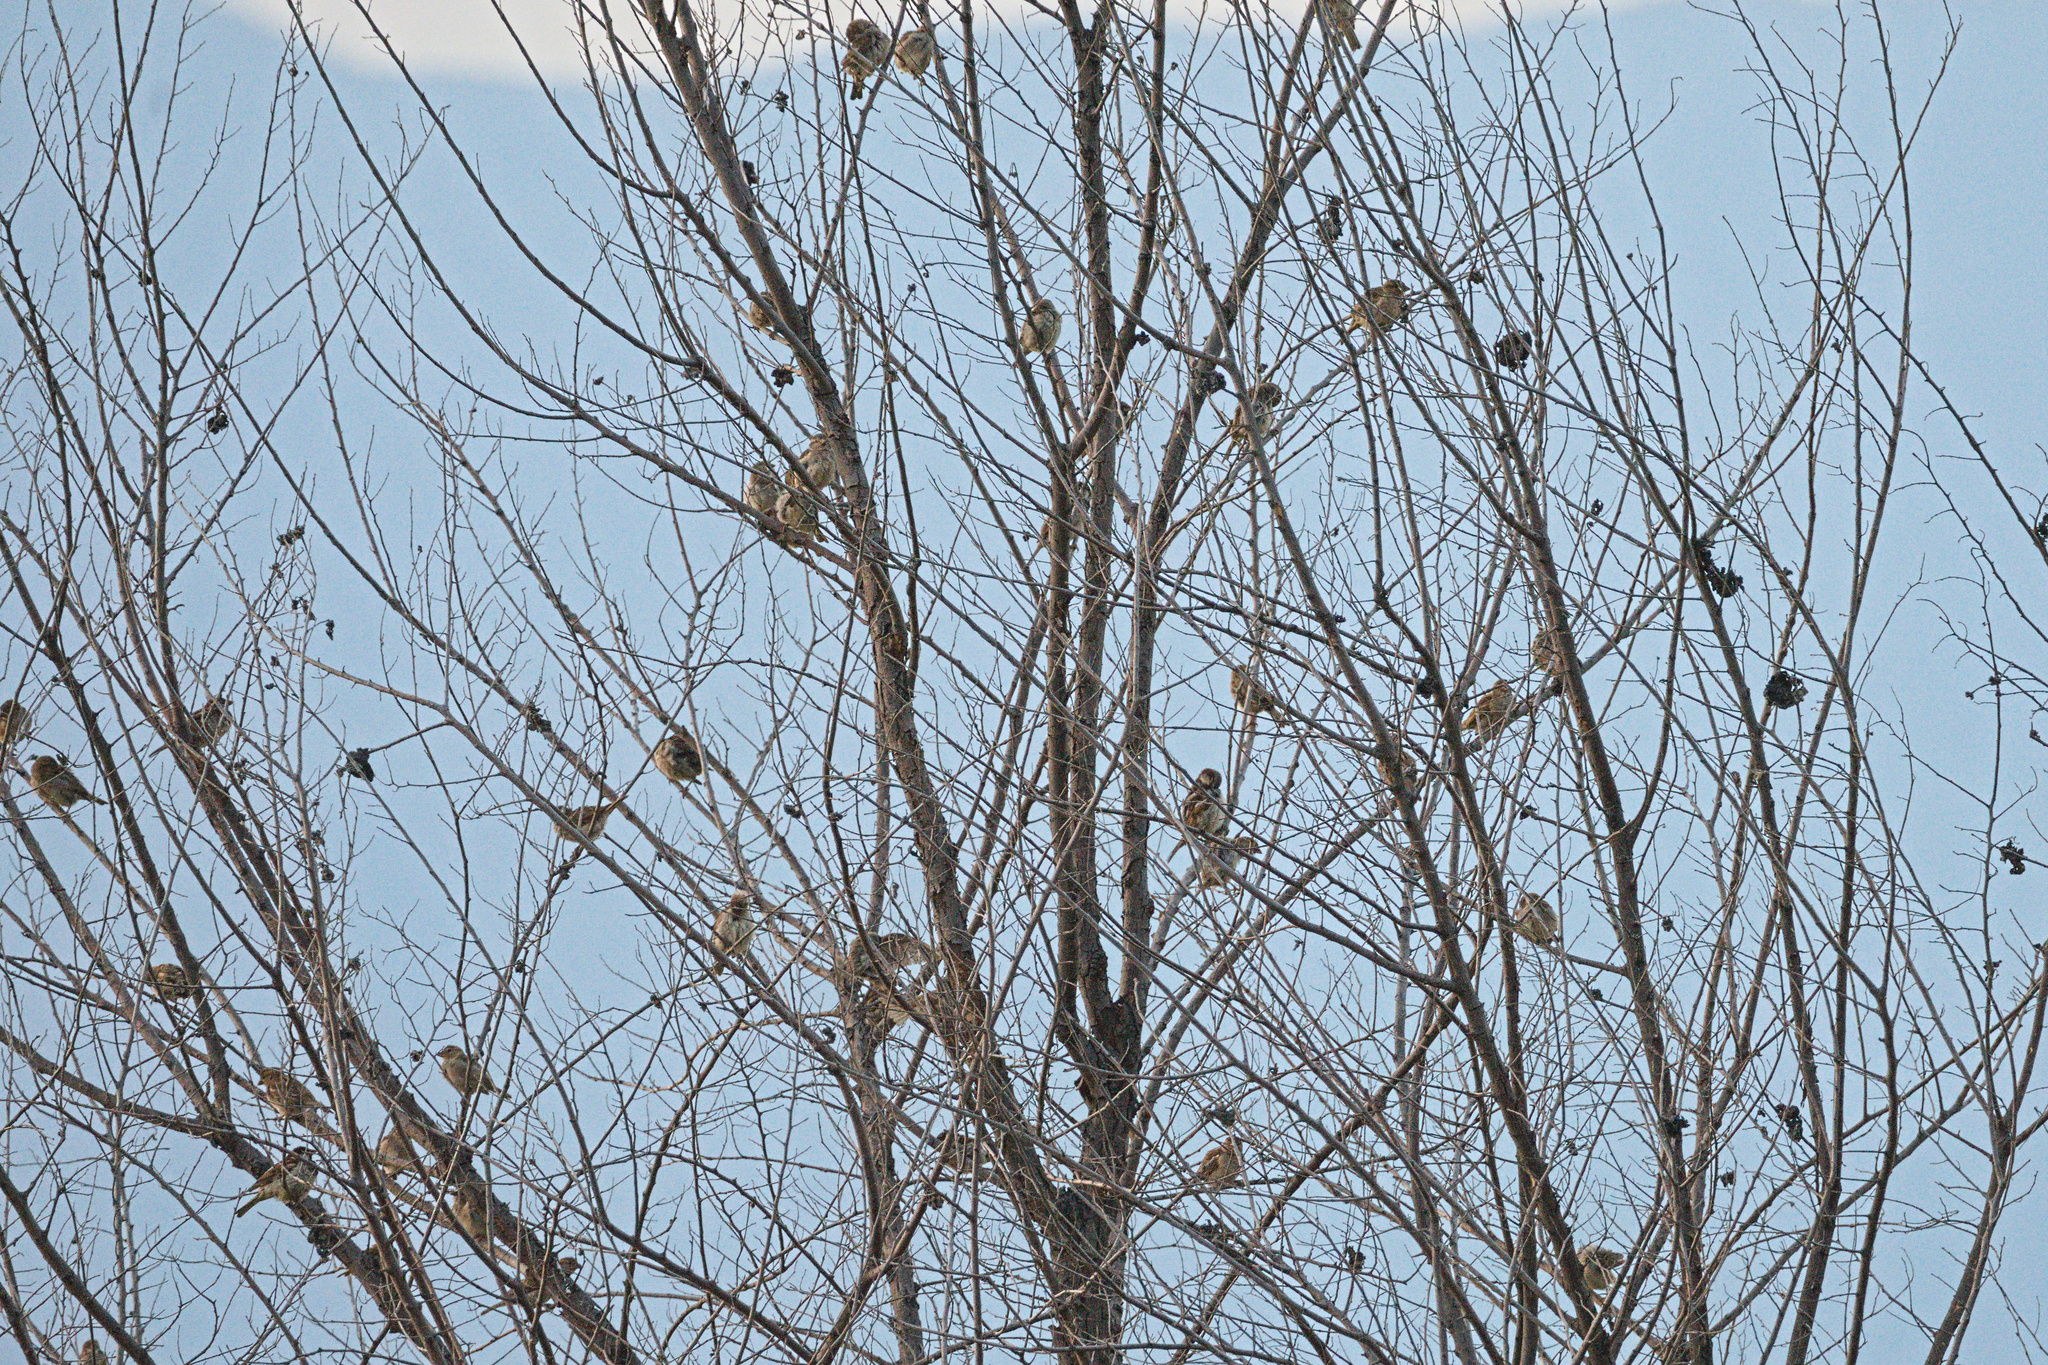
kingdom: Animalia
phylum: Chordata
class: Aves
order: Passeriformes
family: Passeridae
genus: Passer
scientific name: Passer domesticus
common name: House sparrow
